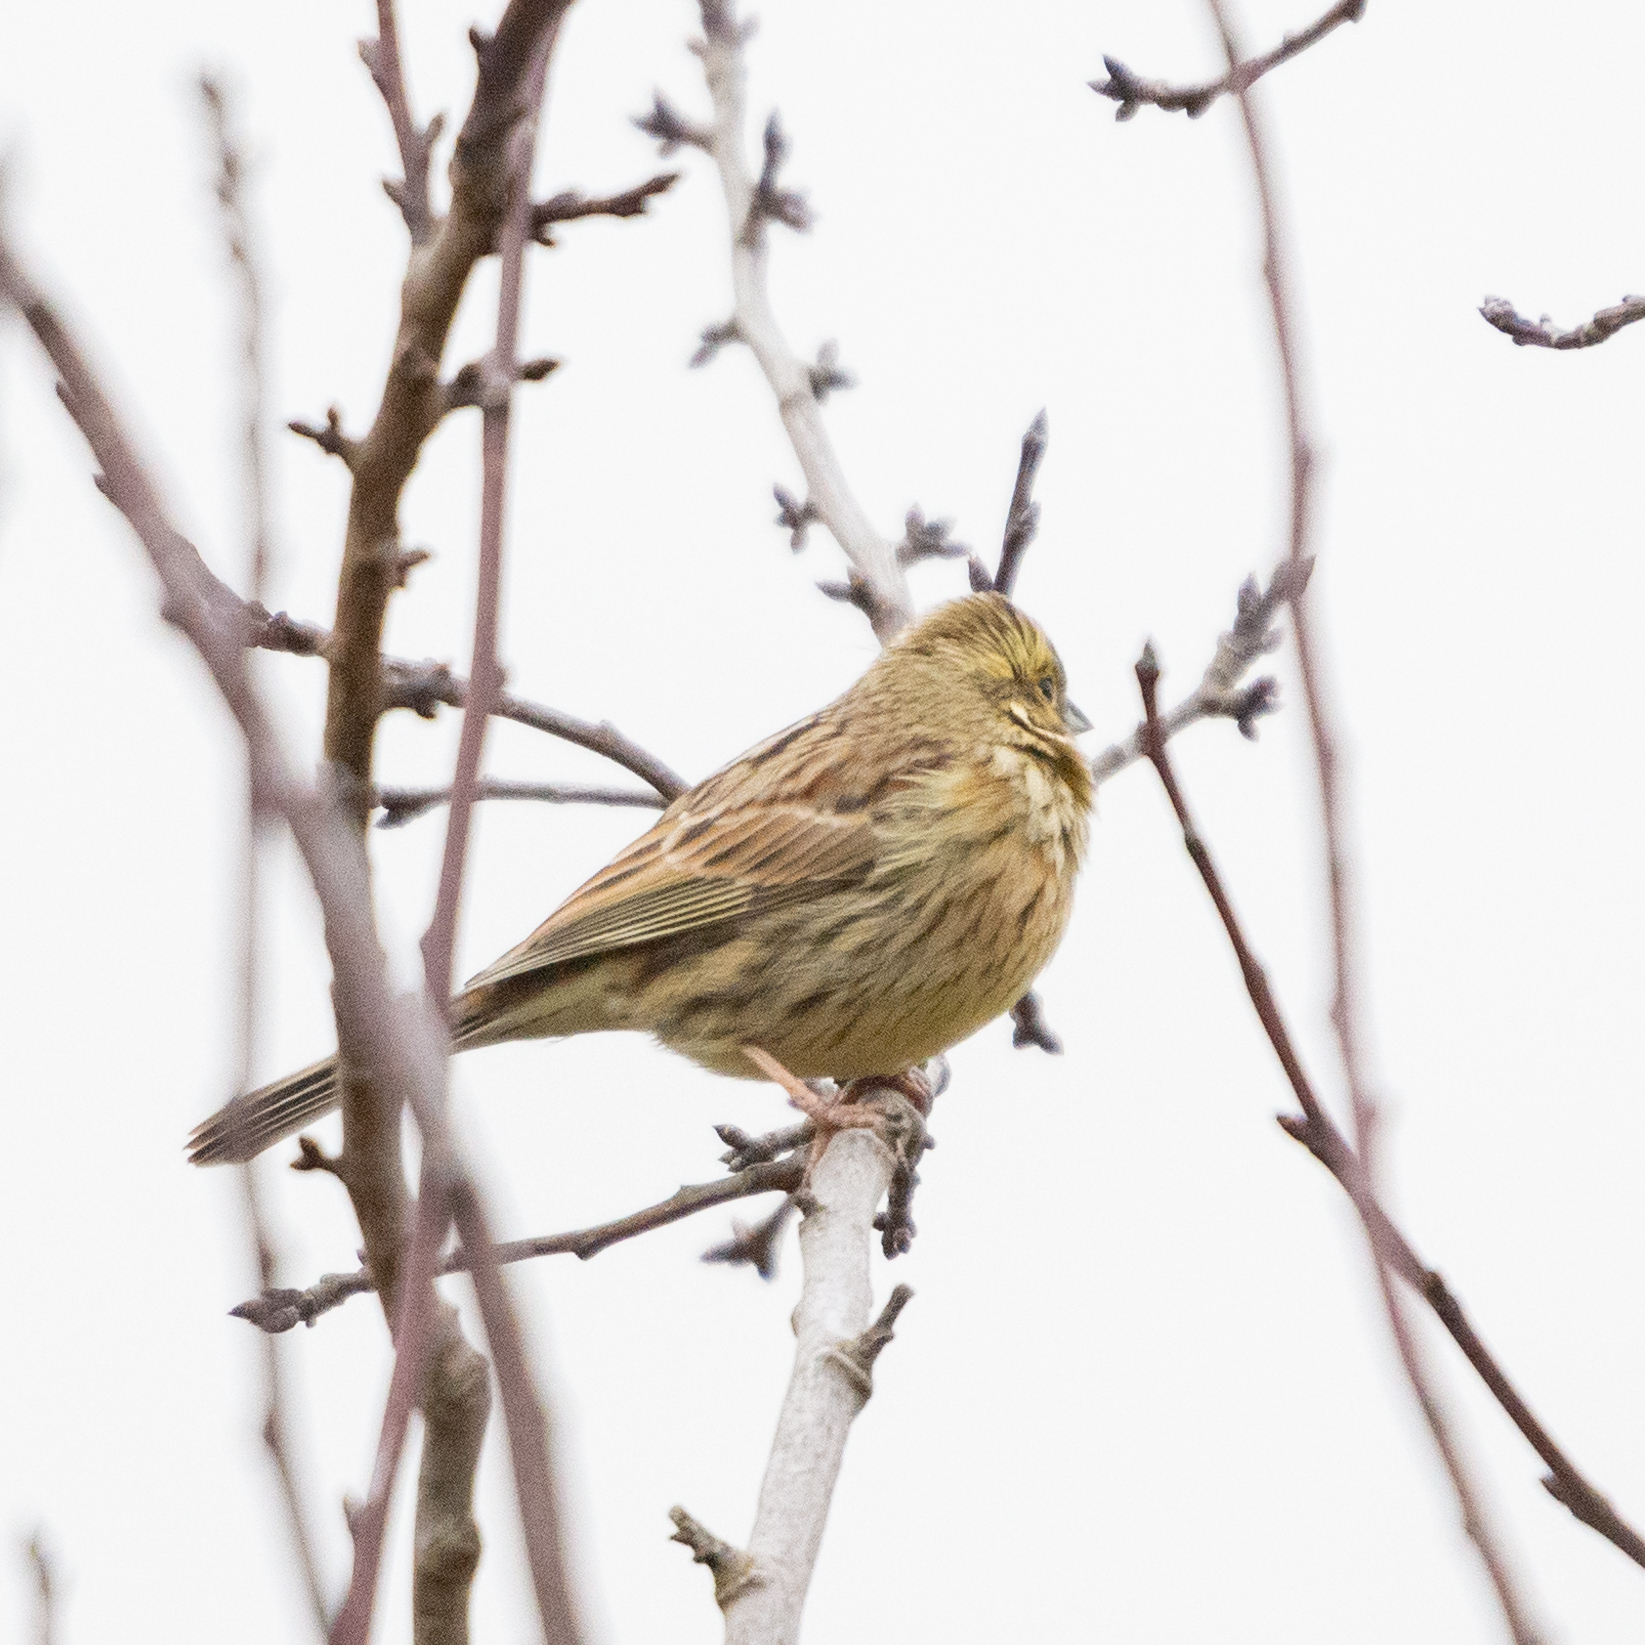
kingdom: Animalia
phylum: Chordata
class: Aves
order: Passeriformes
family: Emberizidae
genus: Emberiza
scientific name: Emberiza cirlus
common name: Cirl bunting
